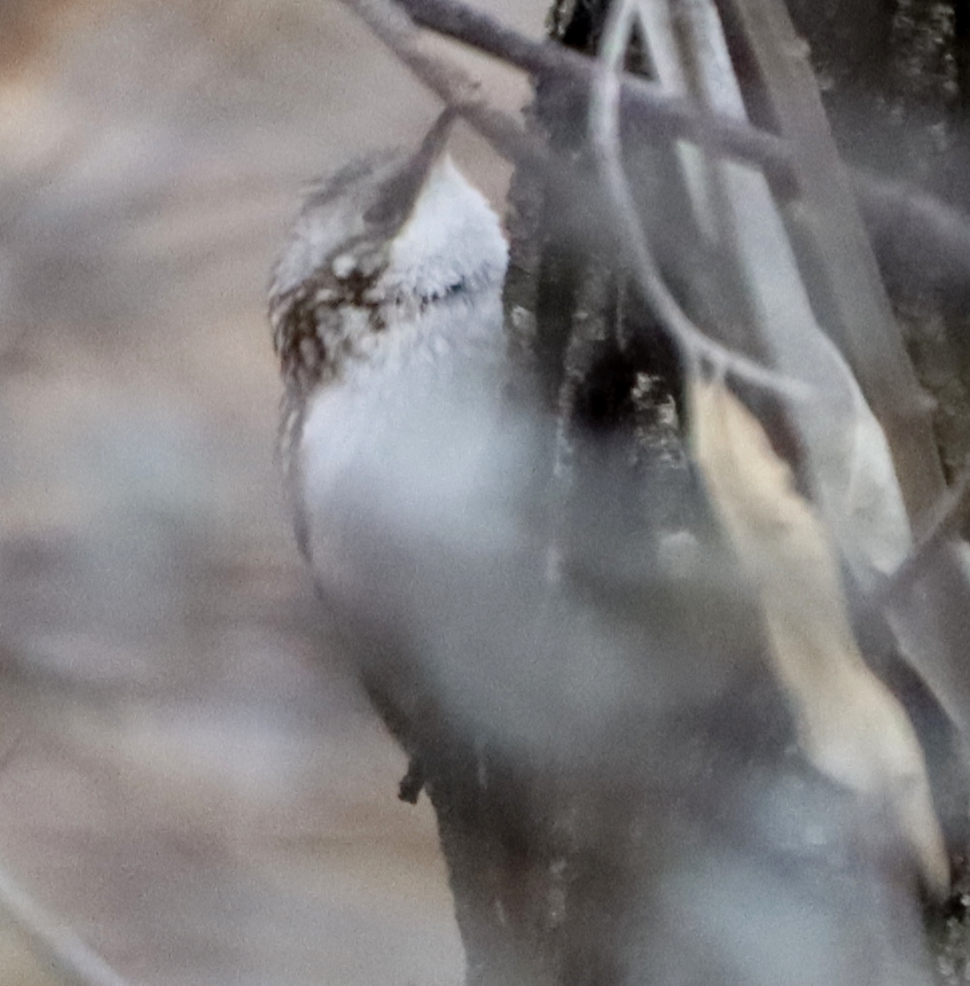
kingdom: Animalia
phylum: Chordata
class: Aves
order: Passeriformes
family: Certhiidae
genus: Certhia
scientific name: Certhia americana
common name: Brown creeper
